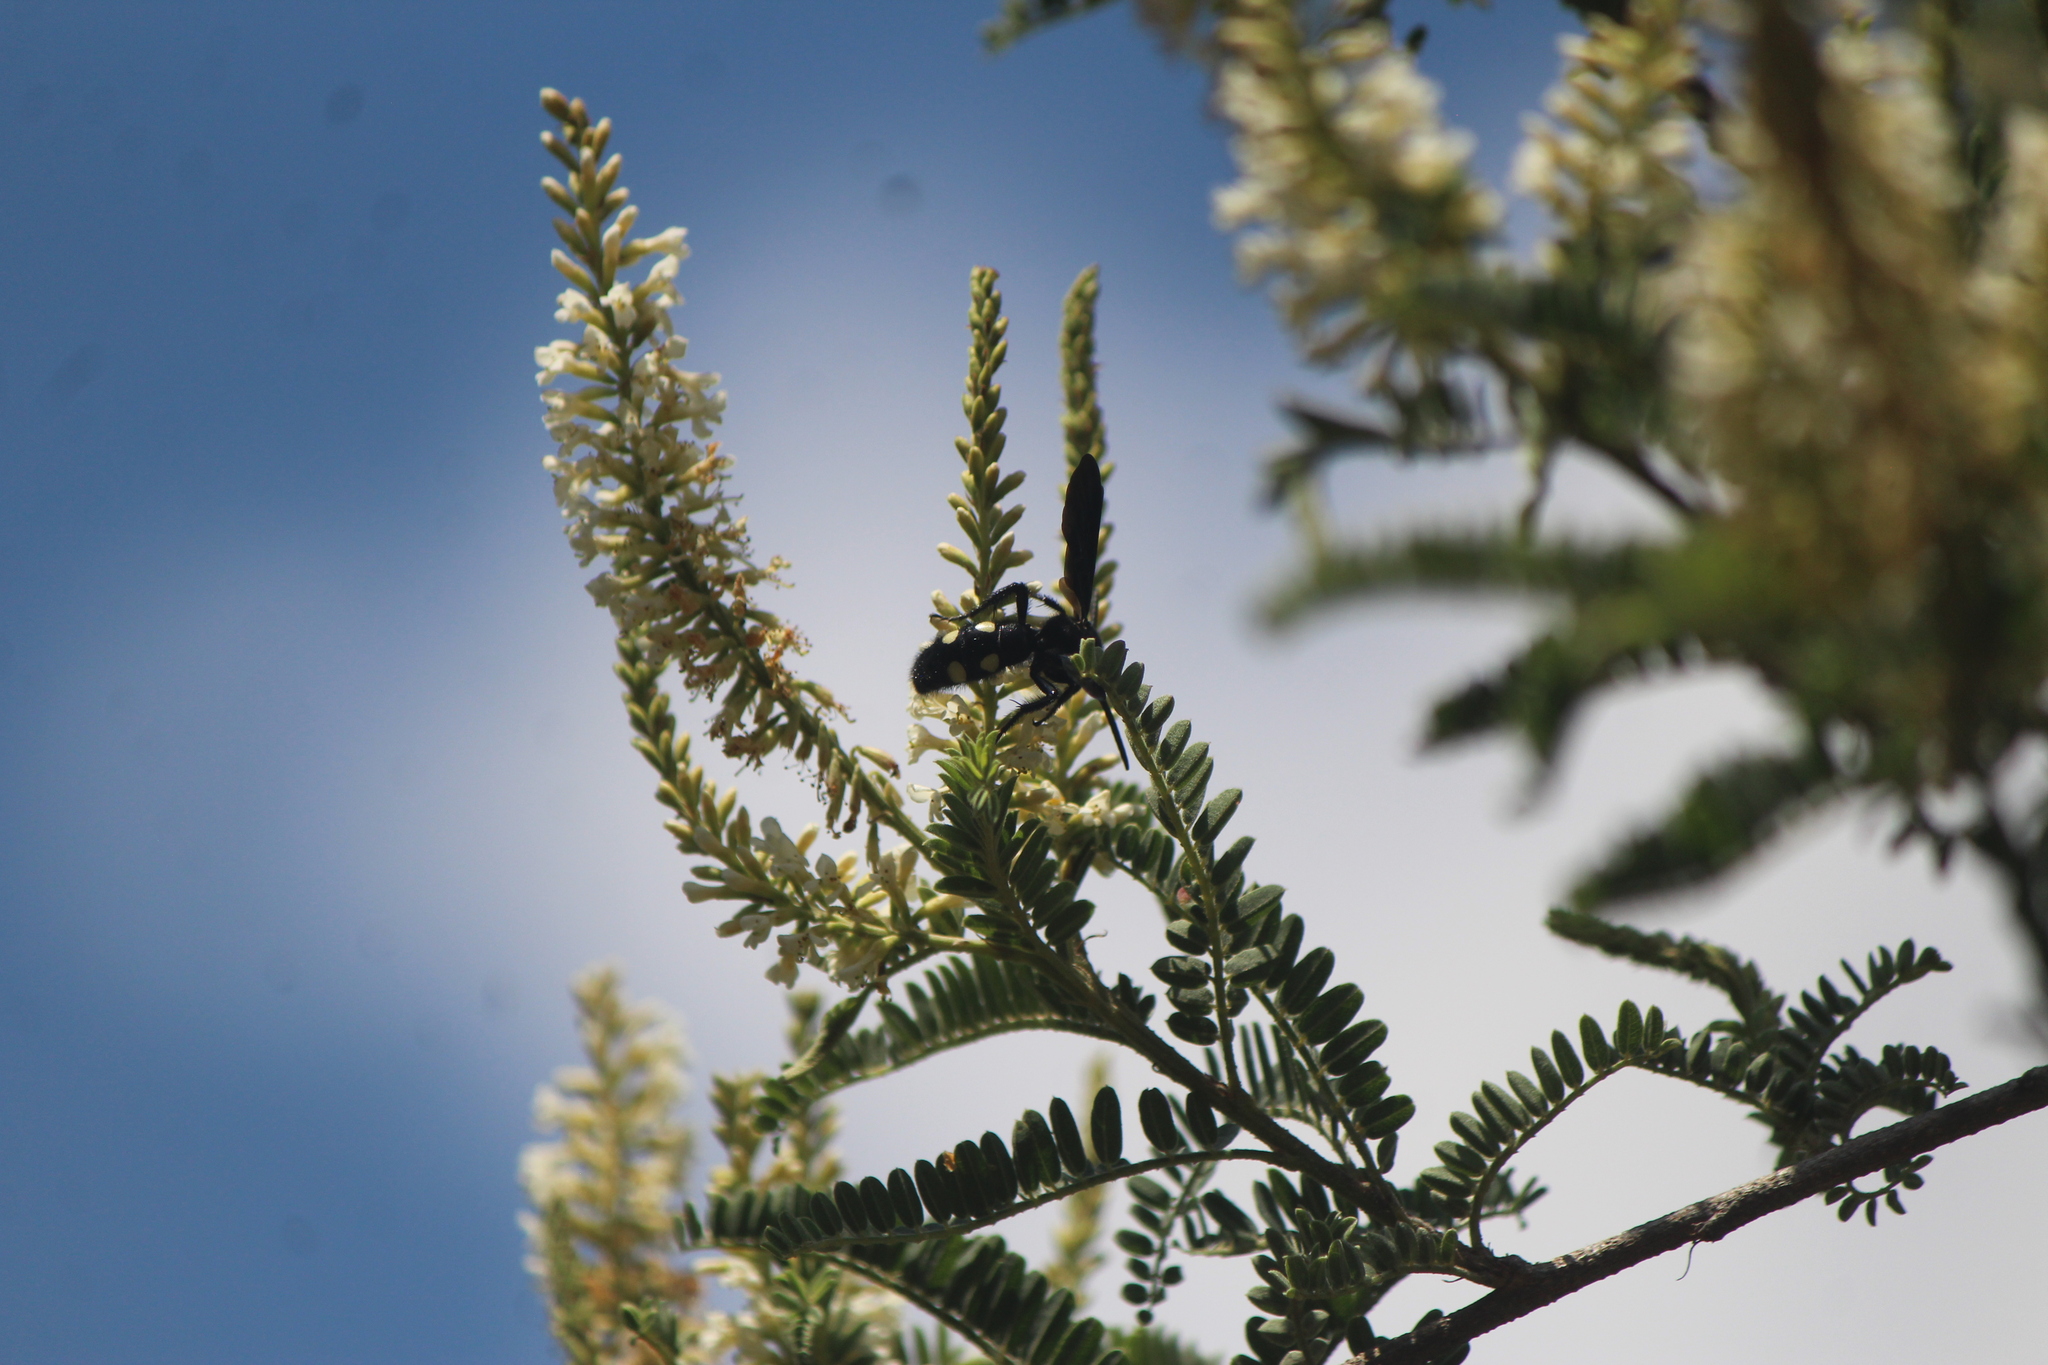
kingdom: Animalia
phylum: Arthropoda
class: Insecta
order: Hymenoptera
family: Scoliidae
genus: Scolia
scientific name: Scolia guttata
